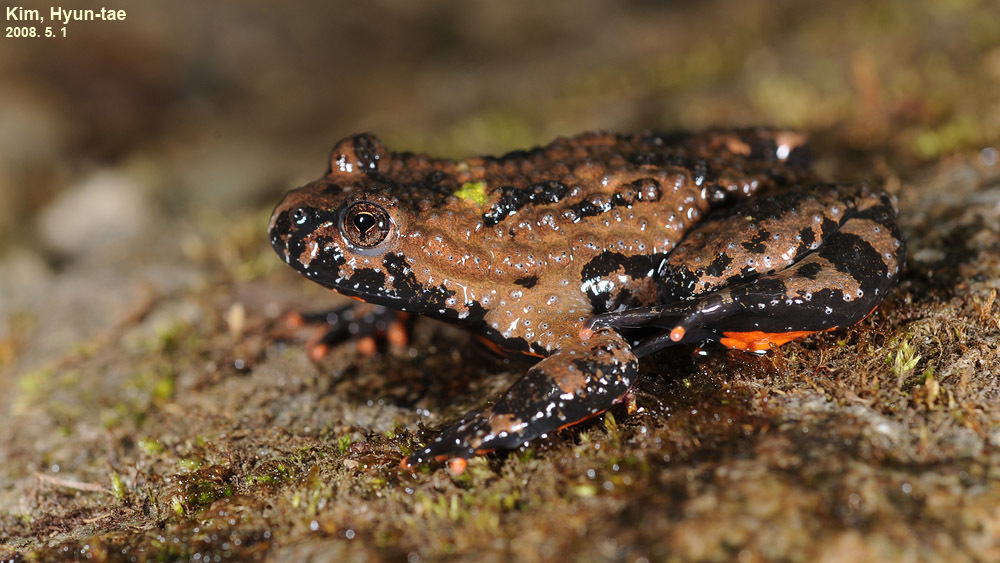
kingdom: Animalia
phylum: Chordata
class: Amphibia
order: Anura
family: Bombinatoridae
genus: Bombina
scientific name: Bombina orientalis
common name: Oriental firebelly toad
